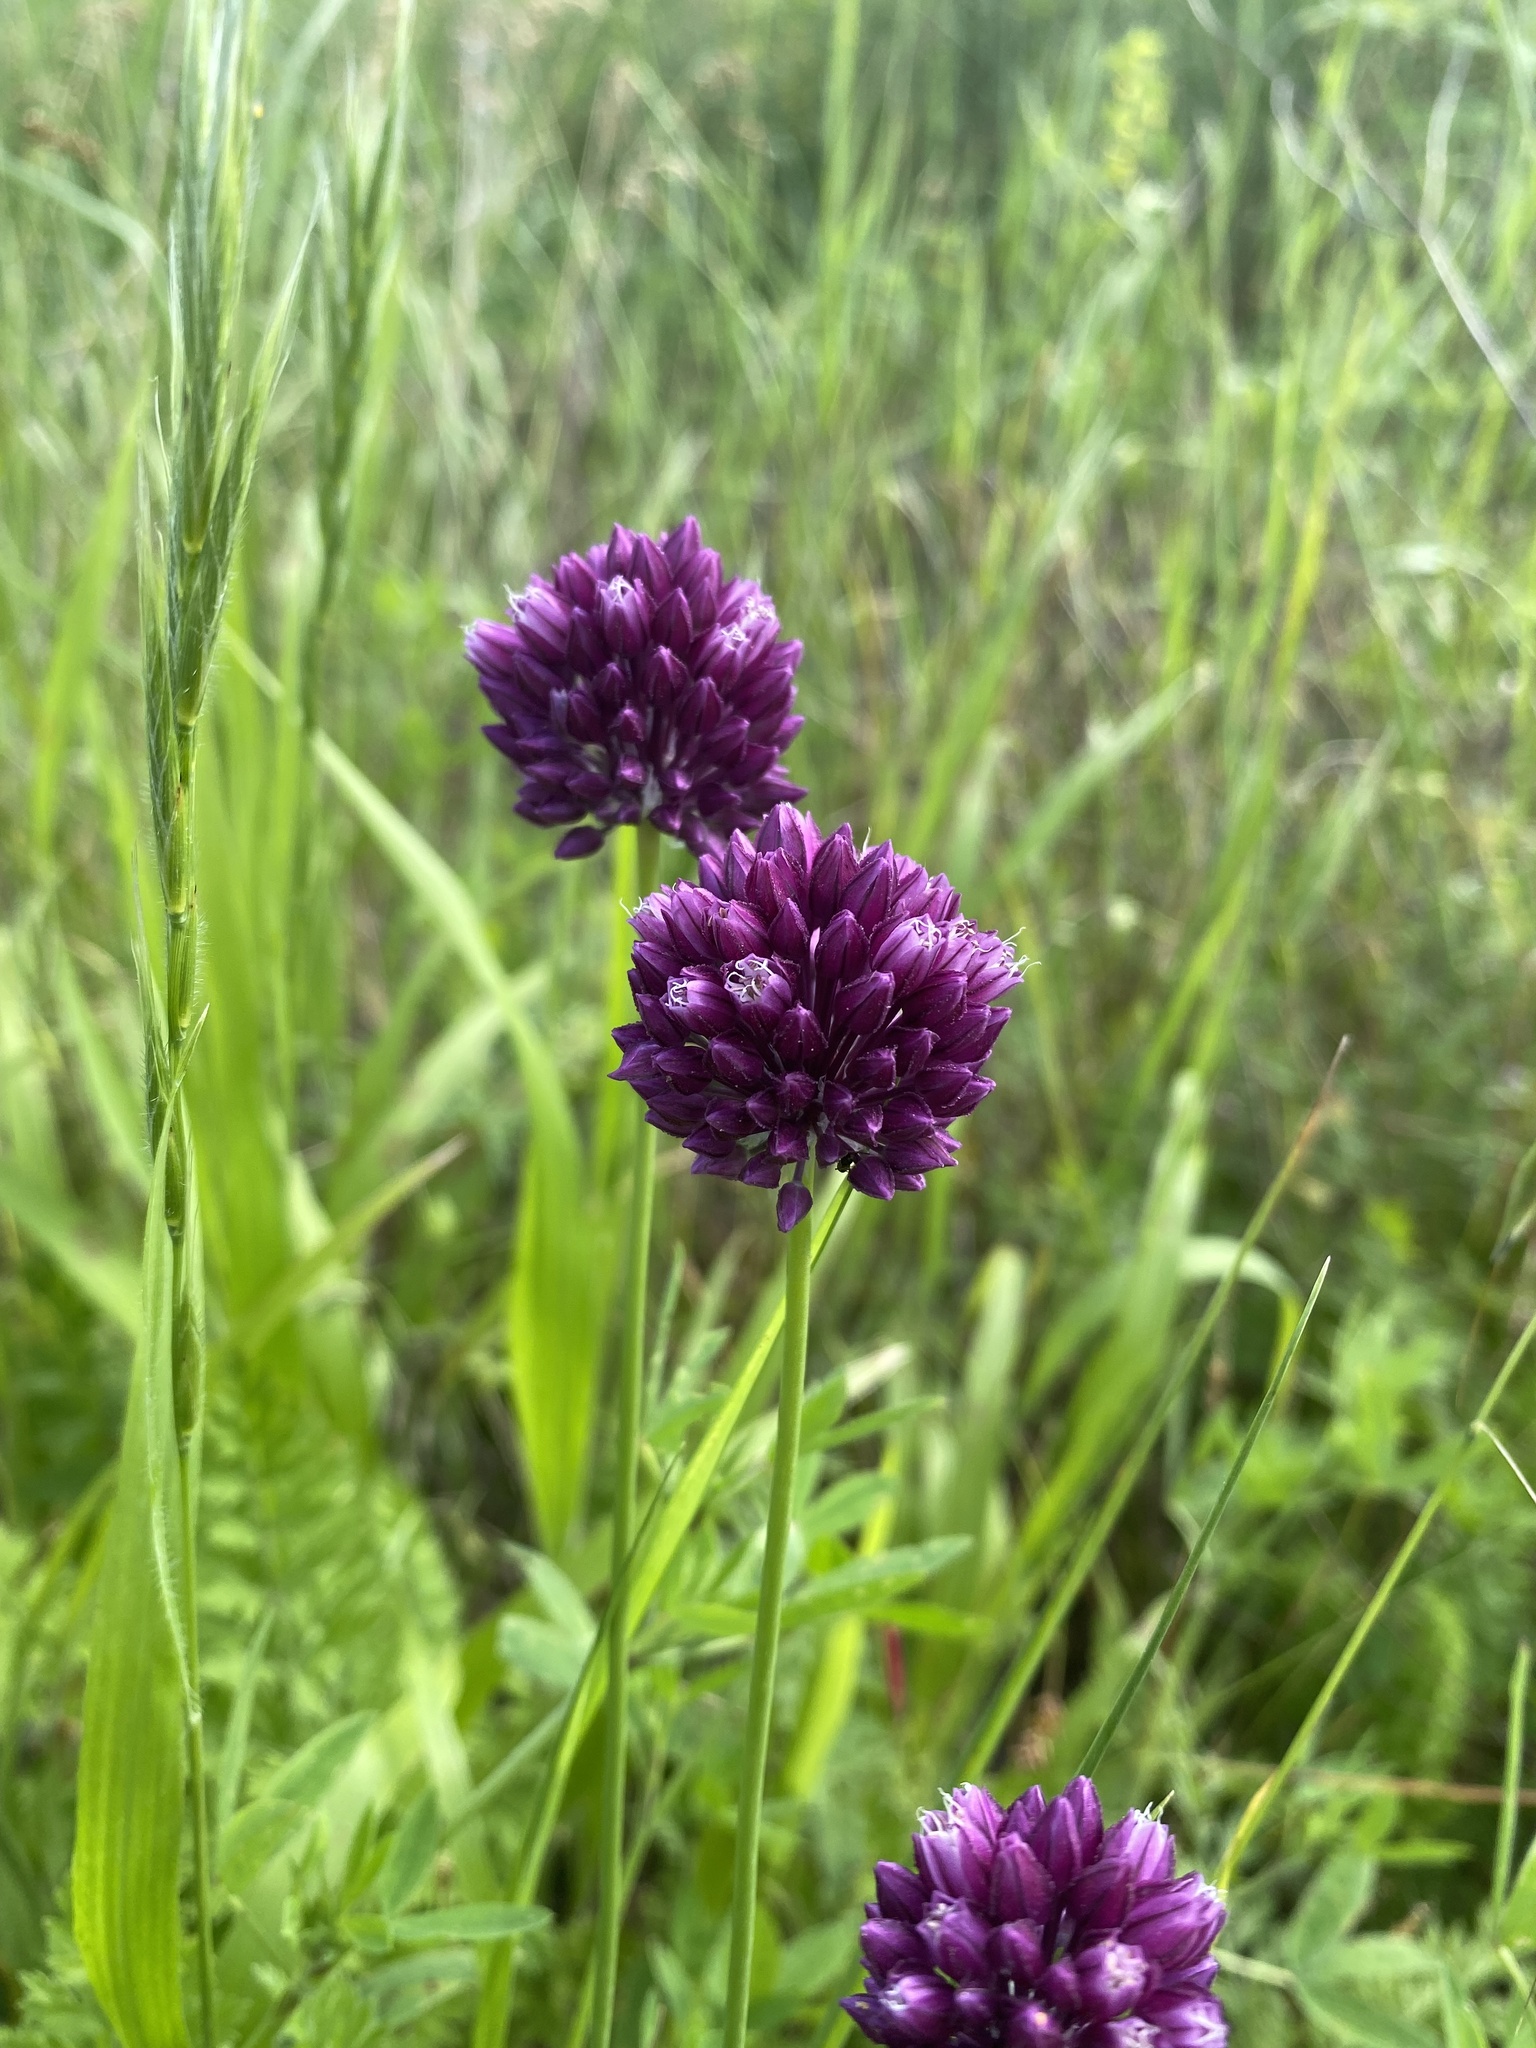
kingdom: Plantae
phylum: Tracheophyta
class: Liliopsida
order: Asparagales
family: Amaryllidaceae
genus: Allium
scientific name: Allium rotundum
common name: Sand leek
